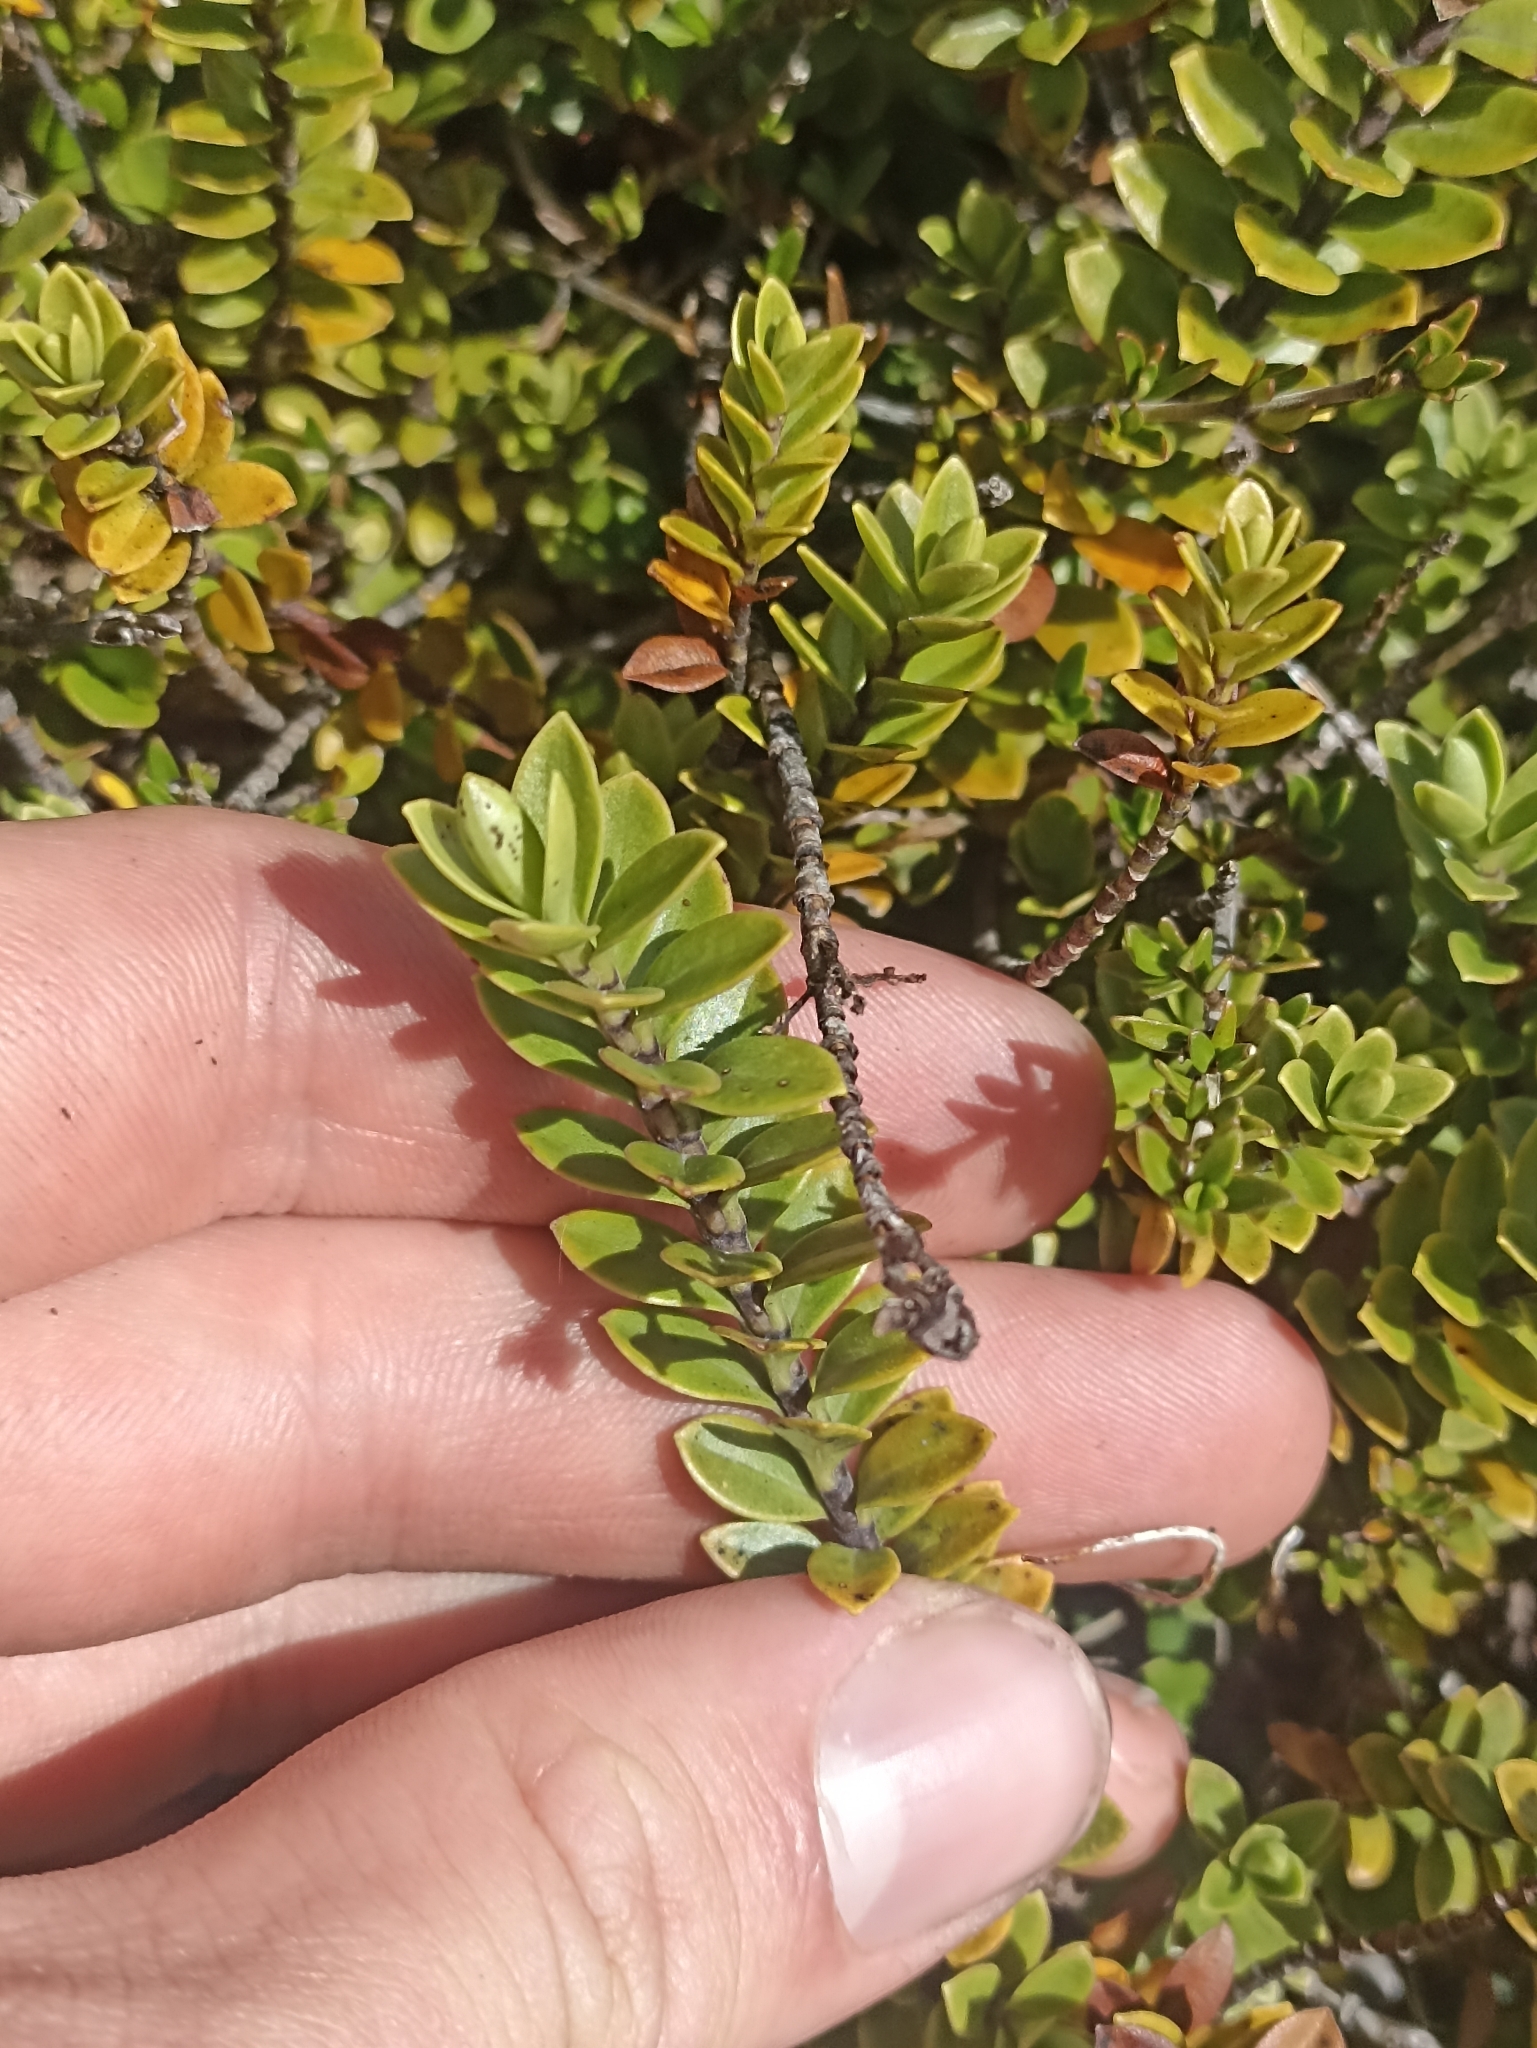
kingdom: Plantae
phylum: Tracheophyta
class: Magnoliopsida
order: Lamiales
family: Plantaginaceae
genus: Veronica
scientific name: Veronica canterburiensis
